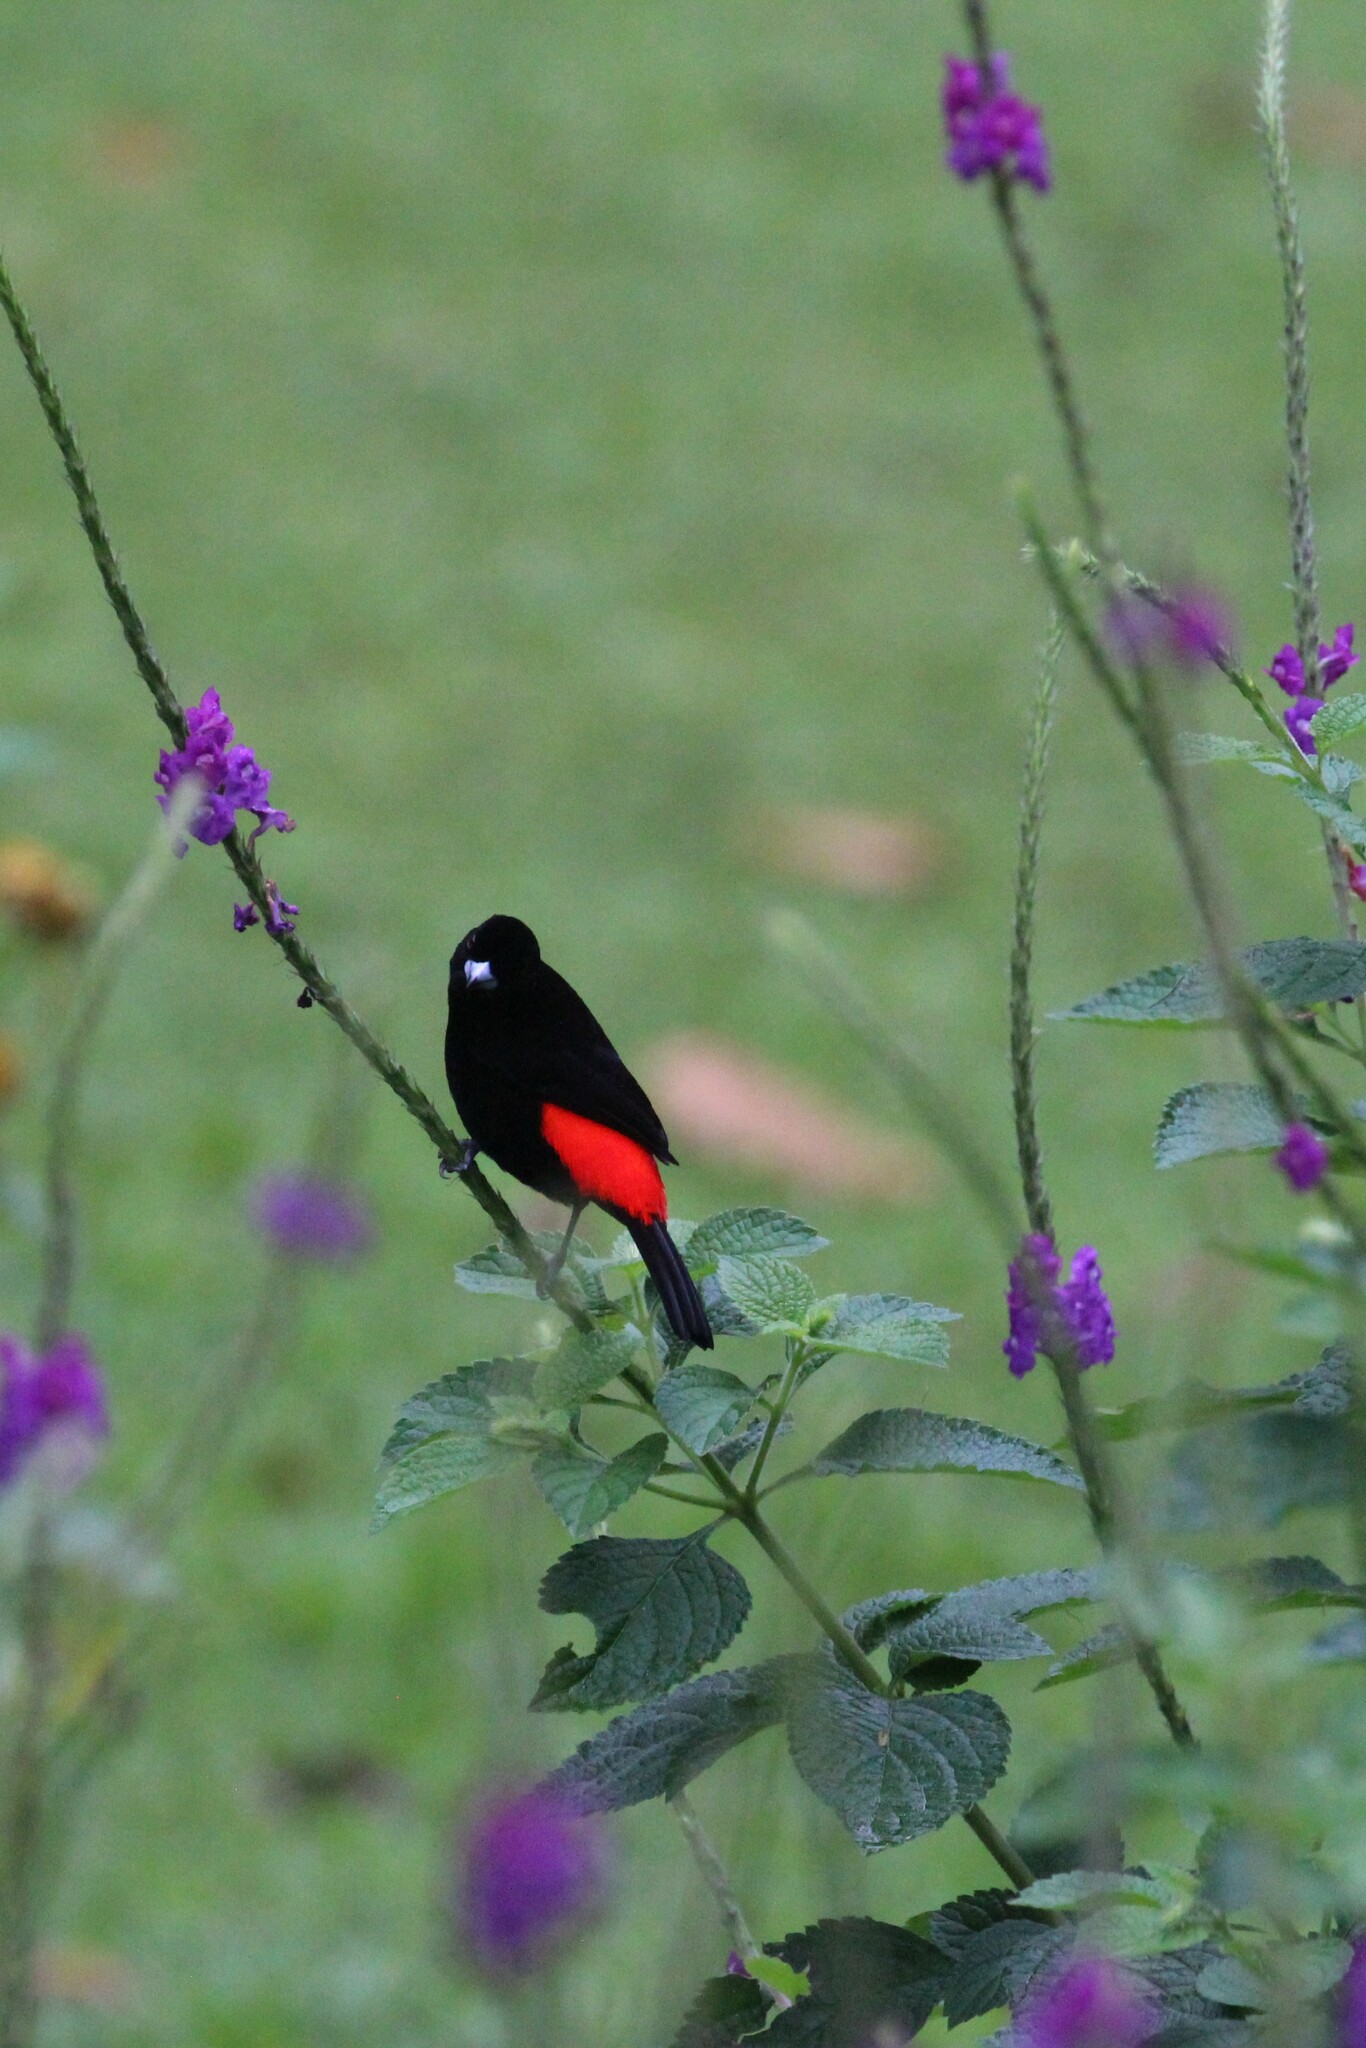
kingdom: Animalia
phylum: Chordata
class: Aves
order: Passeriformes
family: Thraupidae
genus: Ramphocelus
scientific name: Ramphocelus passerinii
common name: Passerini's tanager
